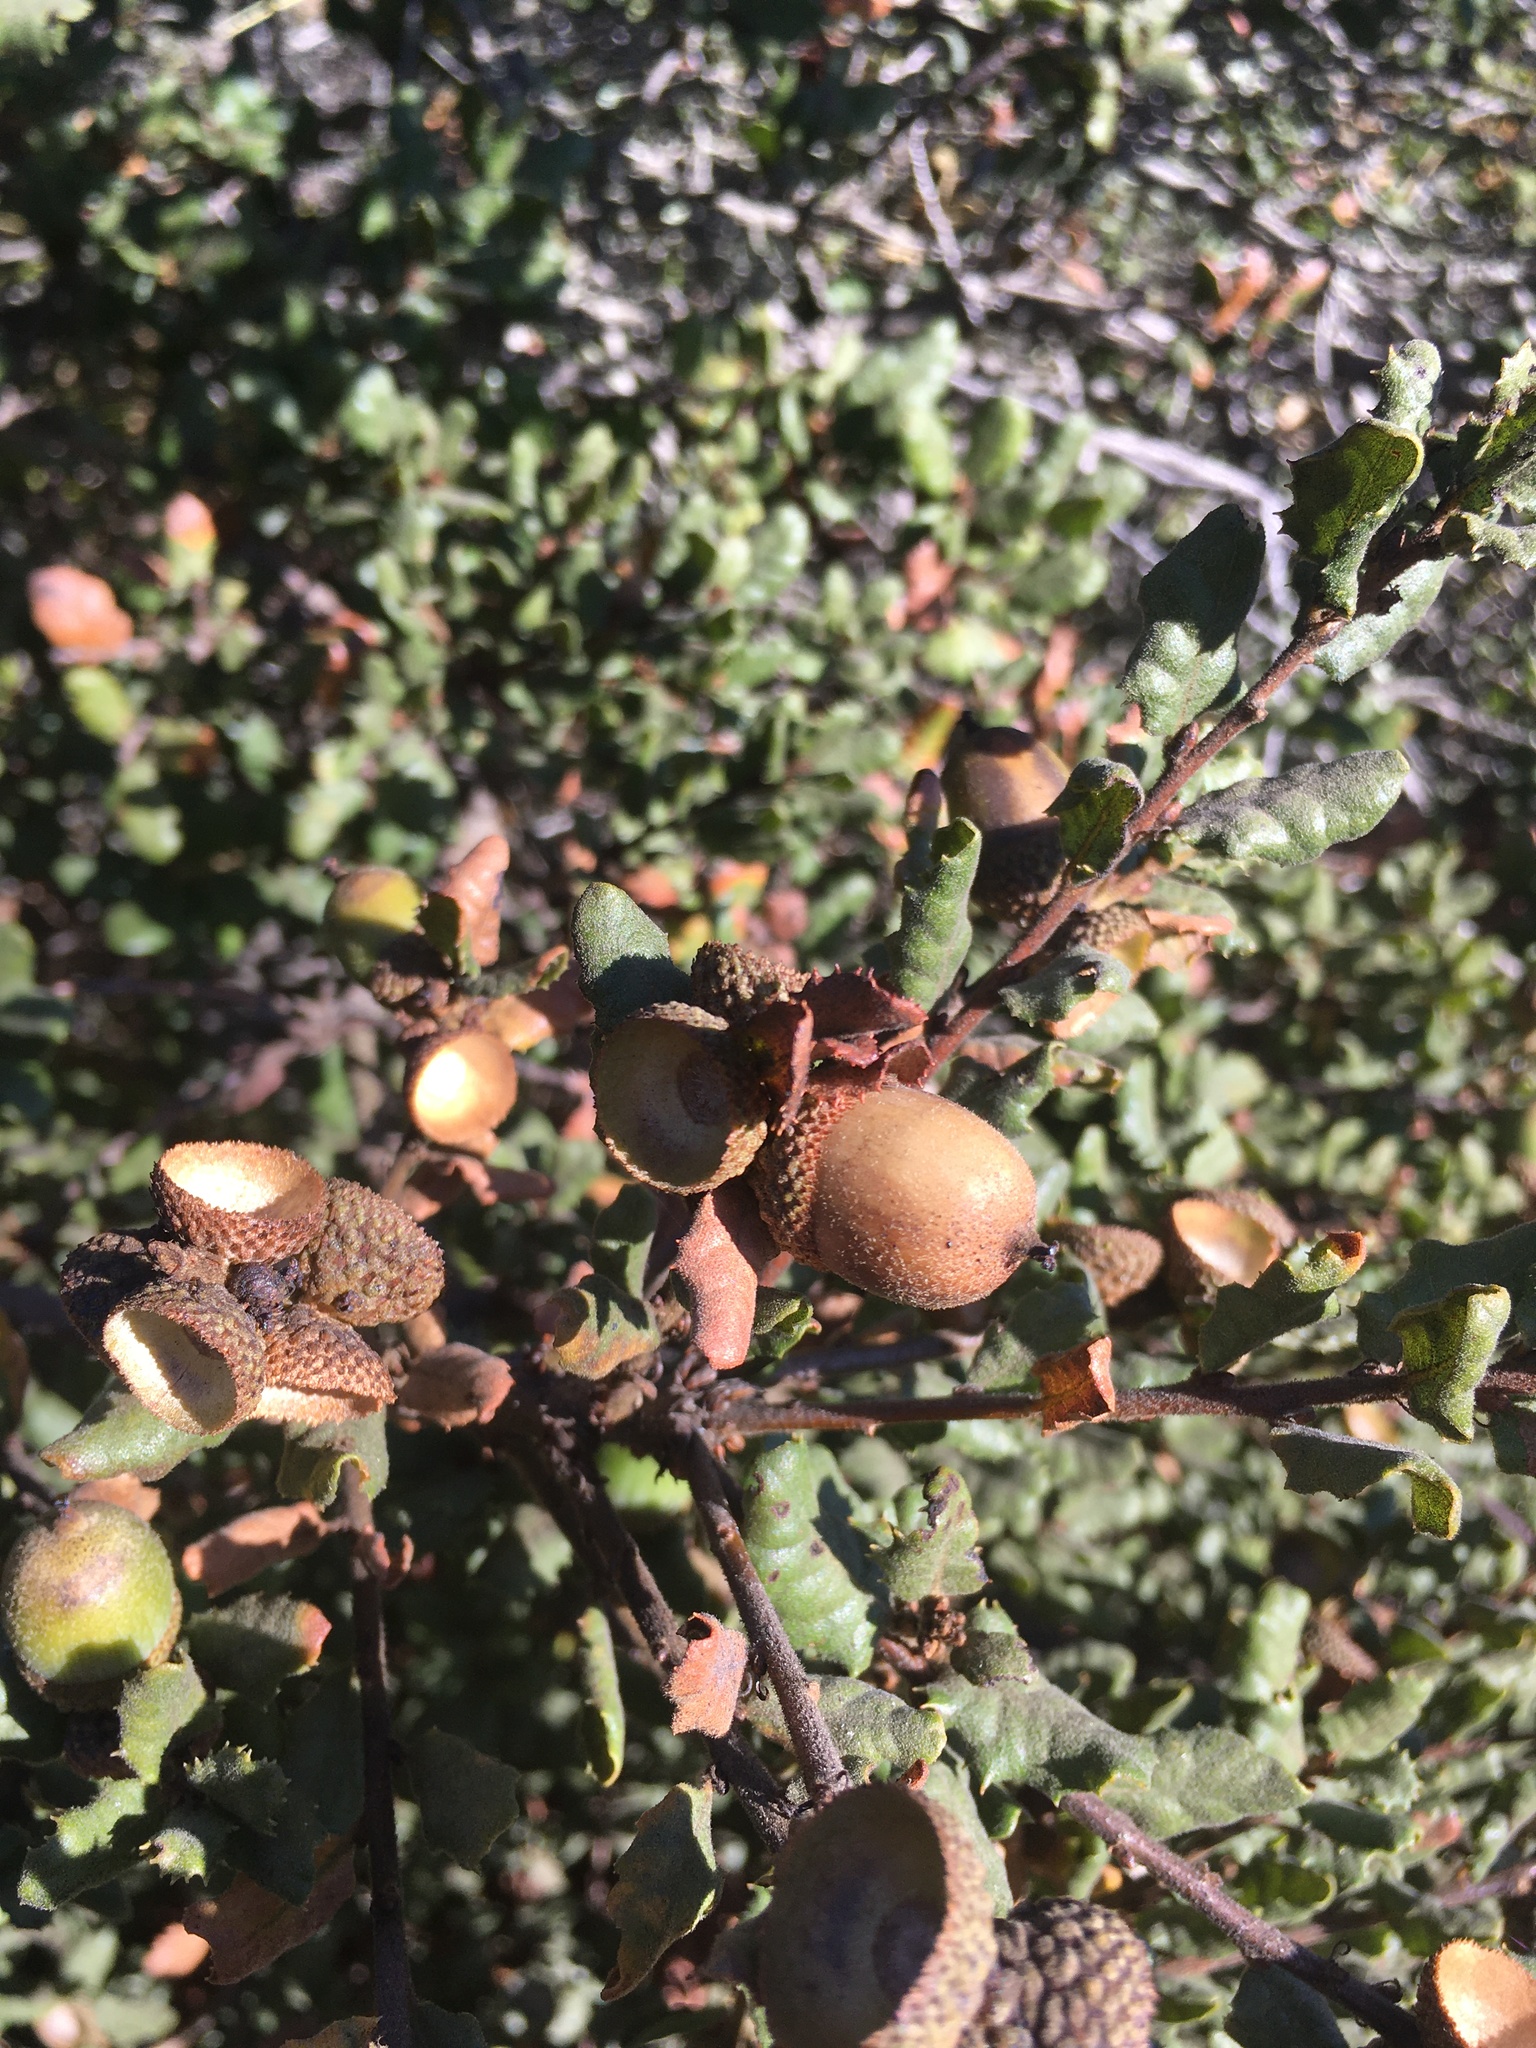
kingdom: Plantae
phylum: Tracheophyta
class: Magnoliopsida
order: Fagales
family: Fagaceae
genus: Quercus
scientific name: Quercus durata
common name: Leather oak
